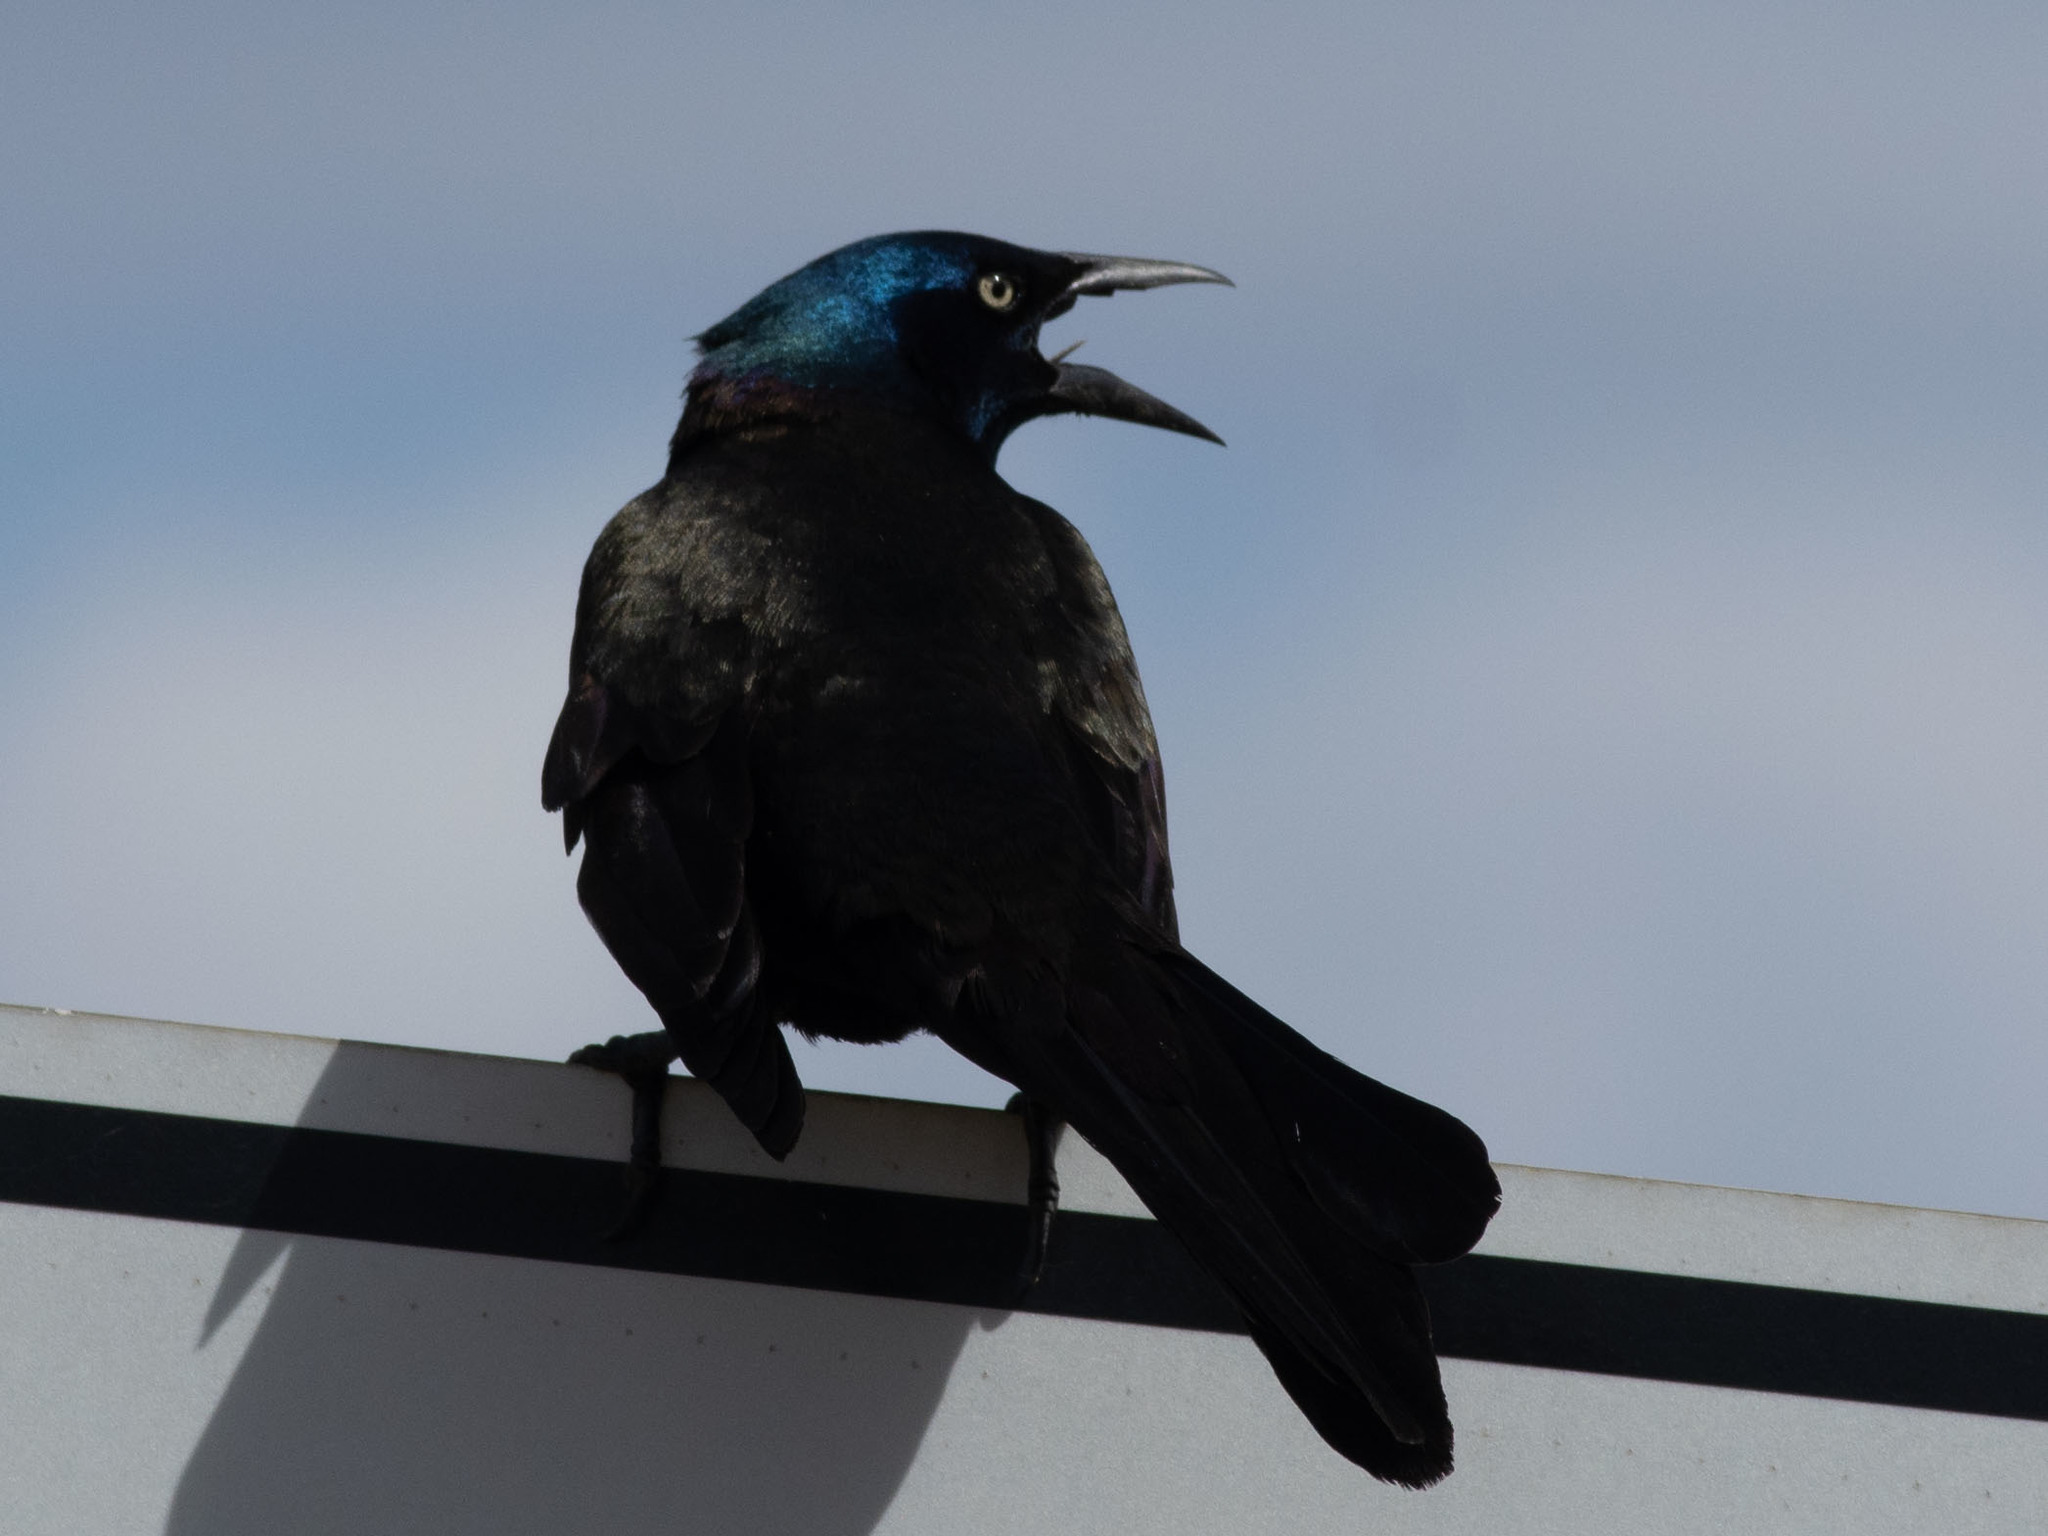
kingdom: Animalia
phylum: Chordata
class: Aves
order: Passeriformes
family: Icteridae
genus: Quiscalus
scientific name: Quiscalus quiscula
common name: Common grackle
